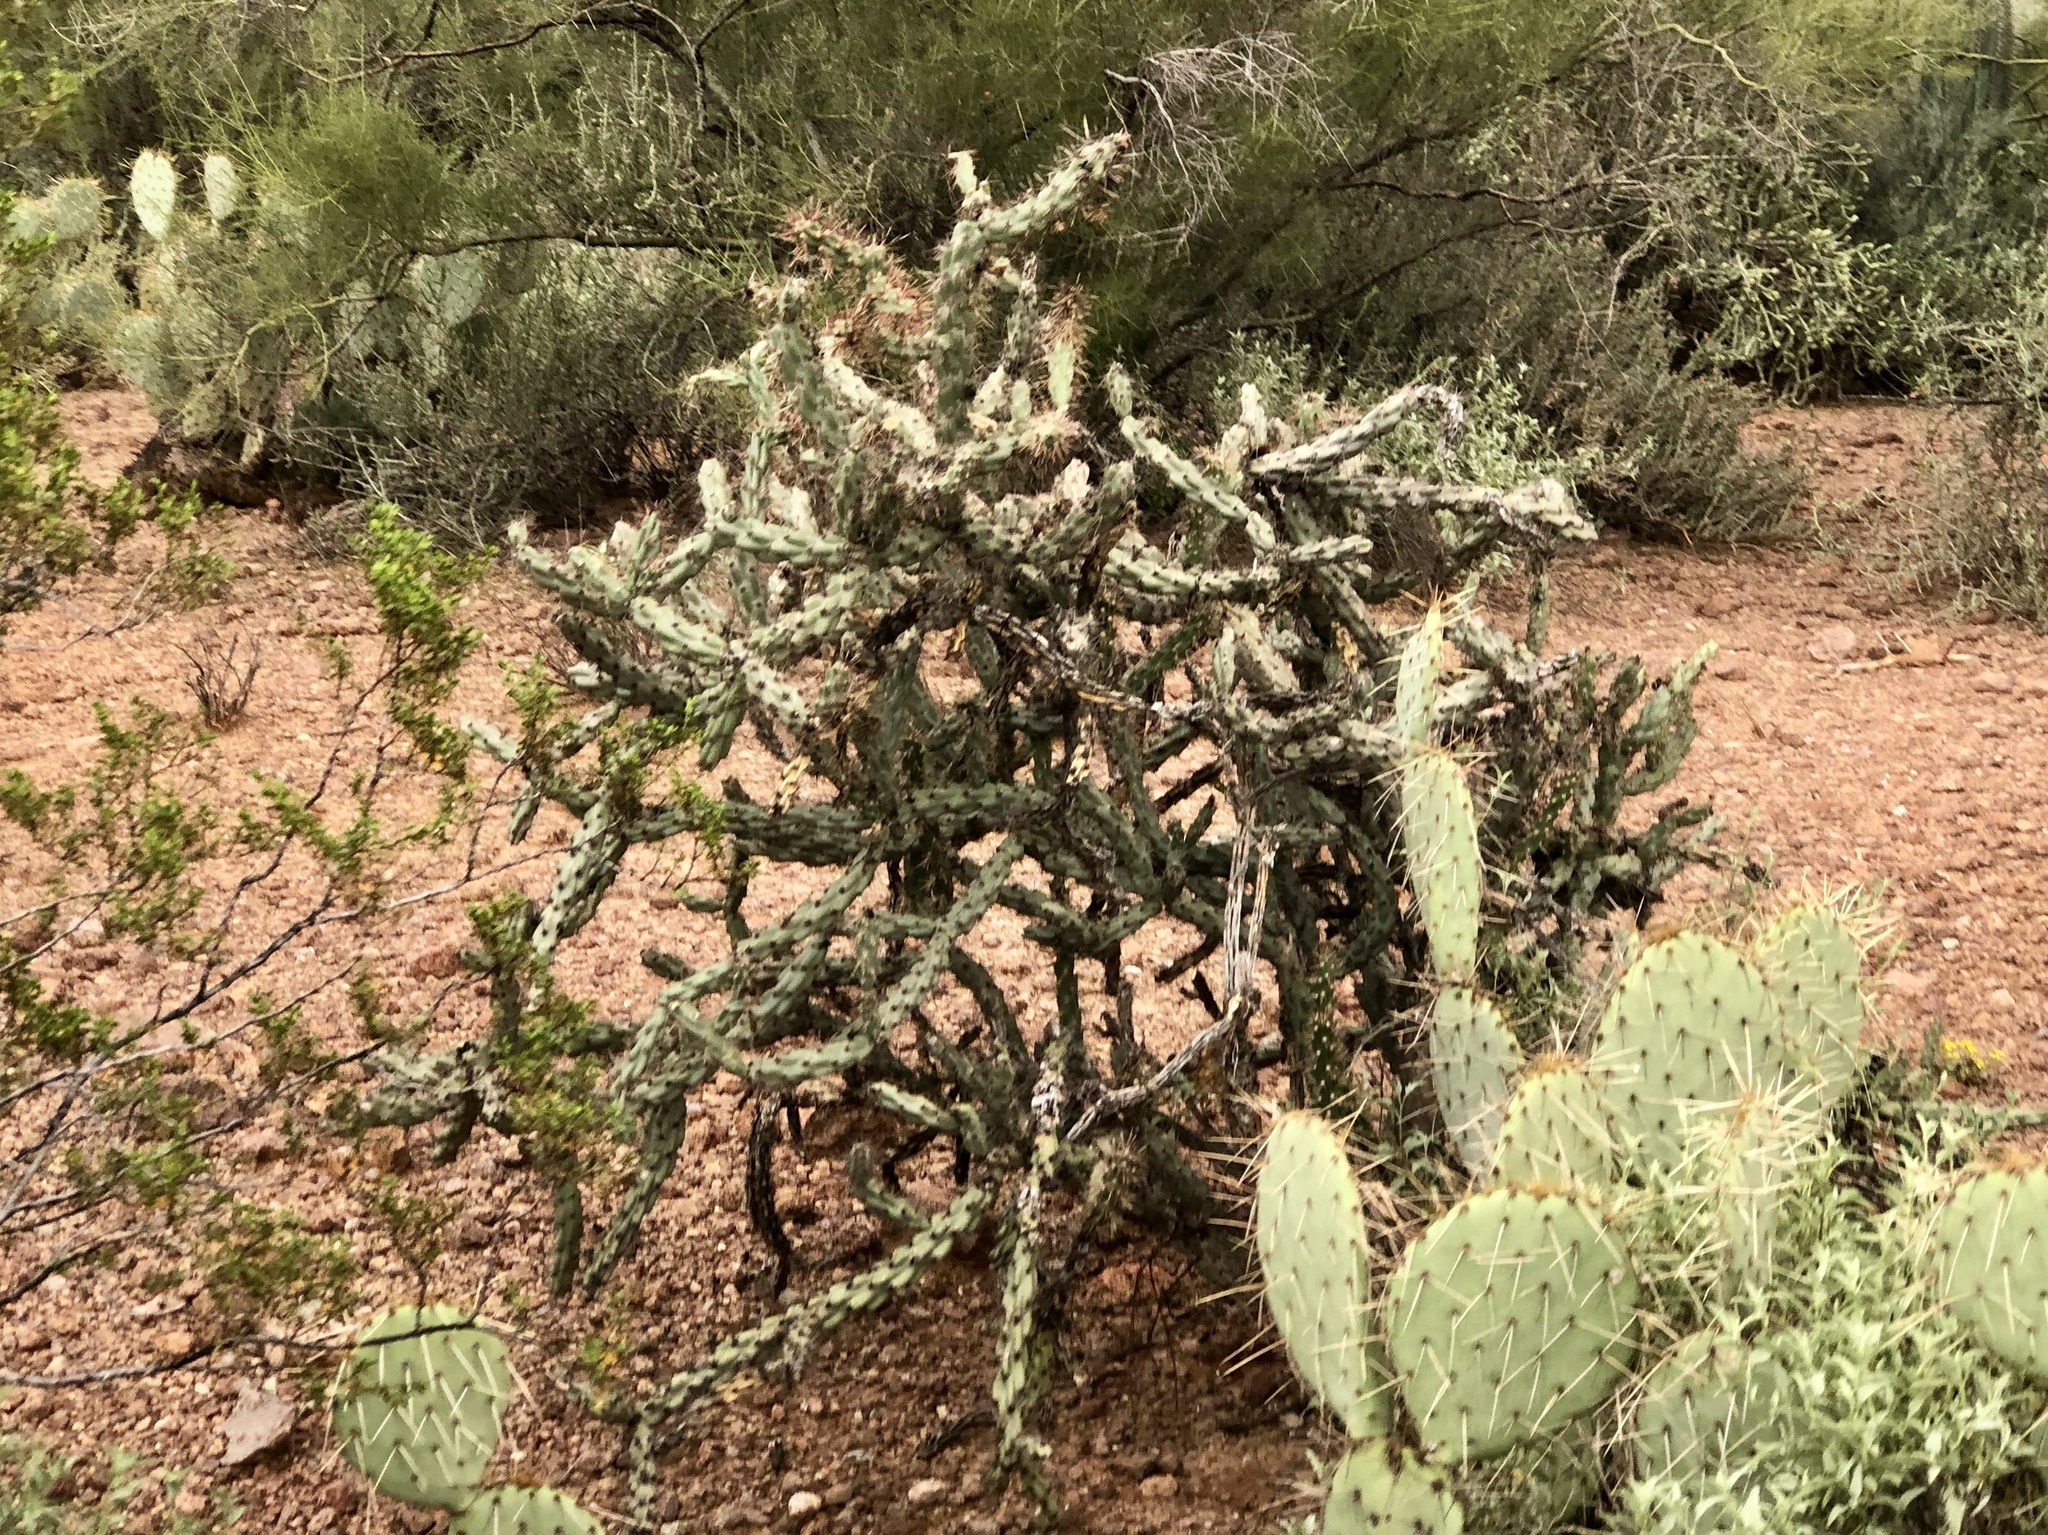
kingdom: Plantae
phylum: Tracheophyta
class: Magnoliopsida
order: Caryophyllales
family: Cactaceae
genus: Cylindropuntia
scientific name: Cylindropuntia acanthocarpa
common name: Buckhorn cholla
